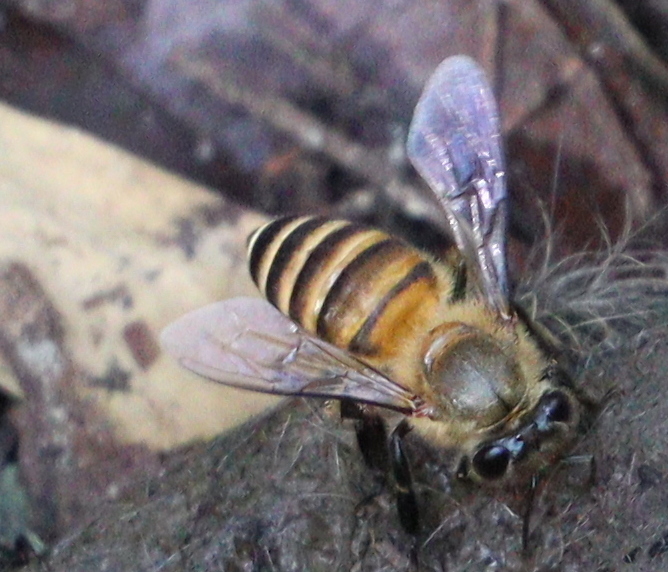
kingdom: Animalia
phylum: Arthropoda
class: Insecta
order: Hymenoptera
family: Apidae
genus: Apis
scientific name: Apis cerana
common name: Honey bee
